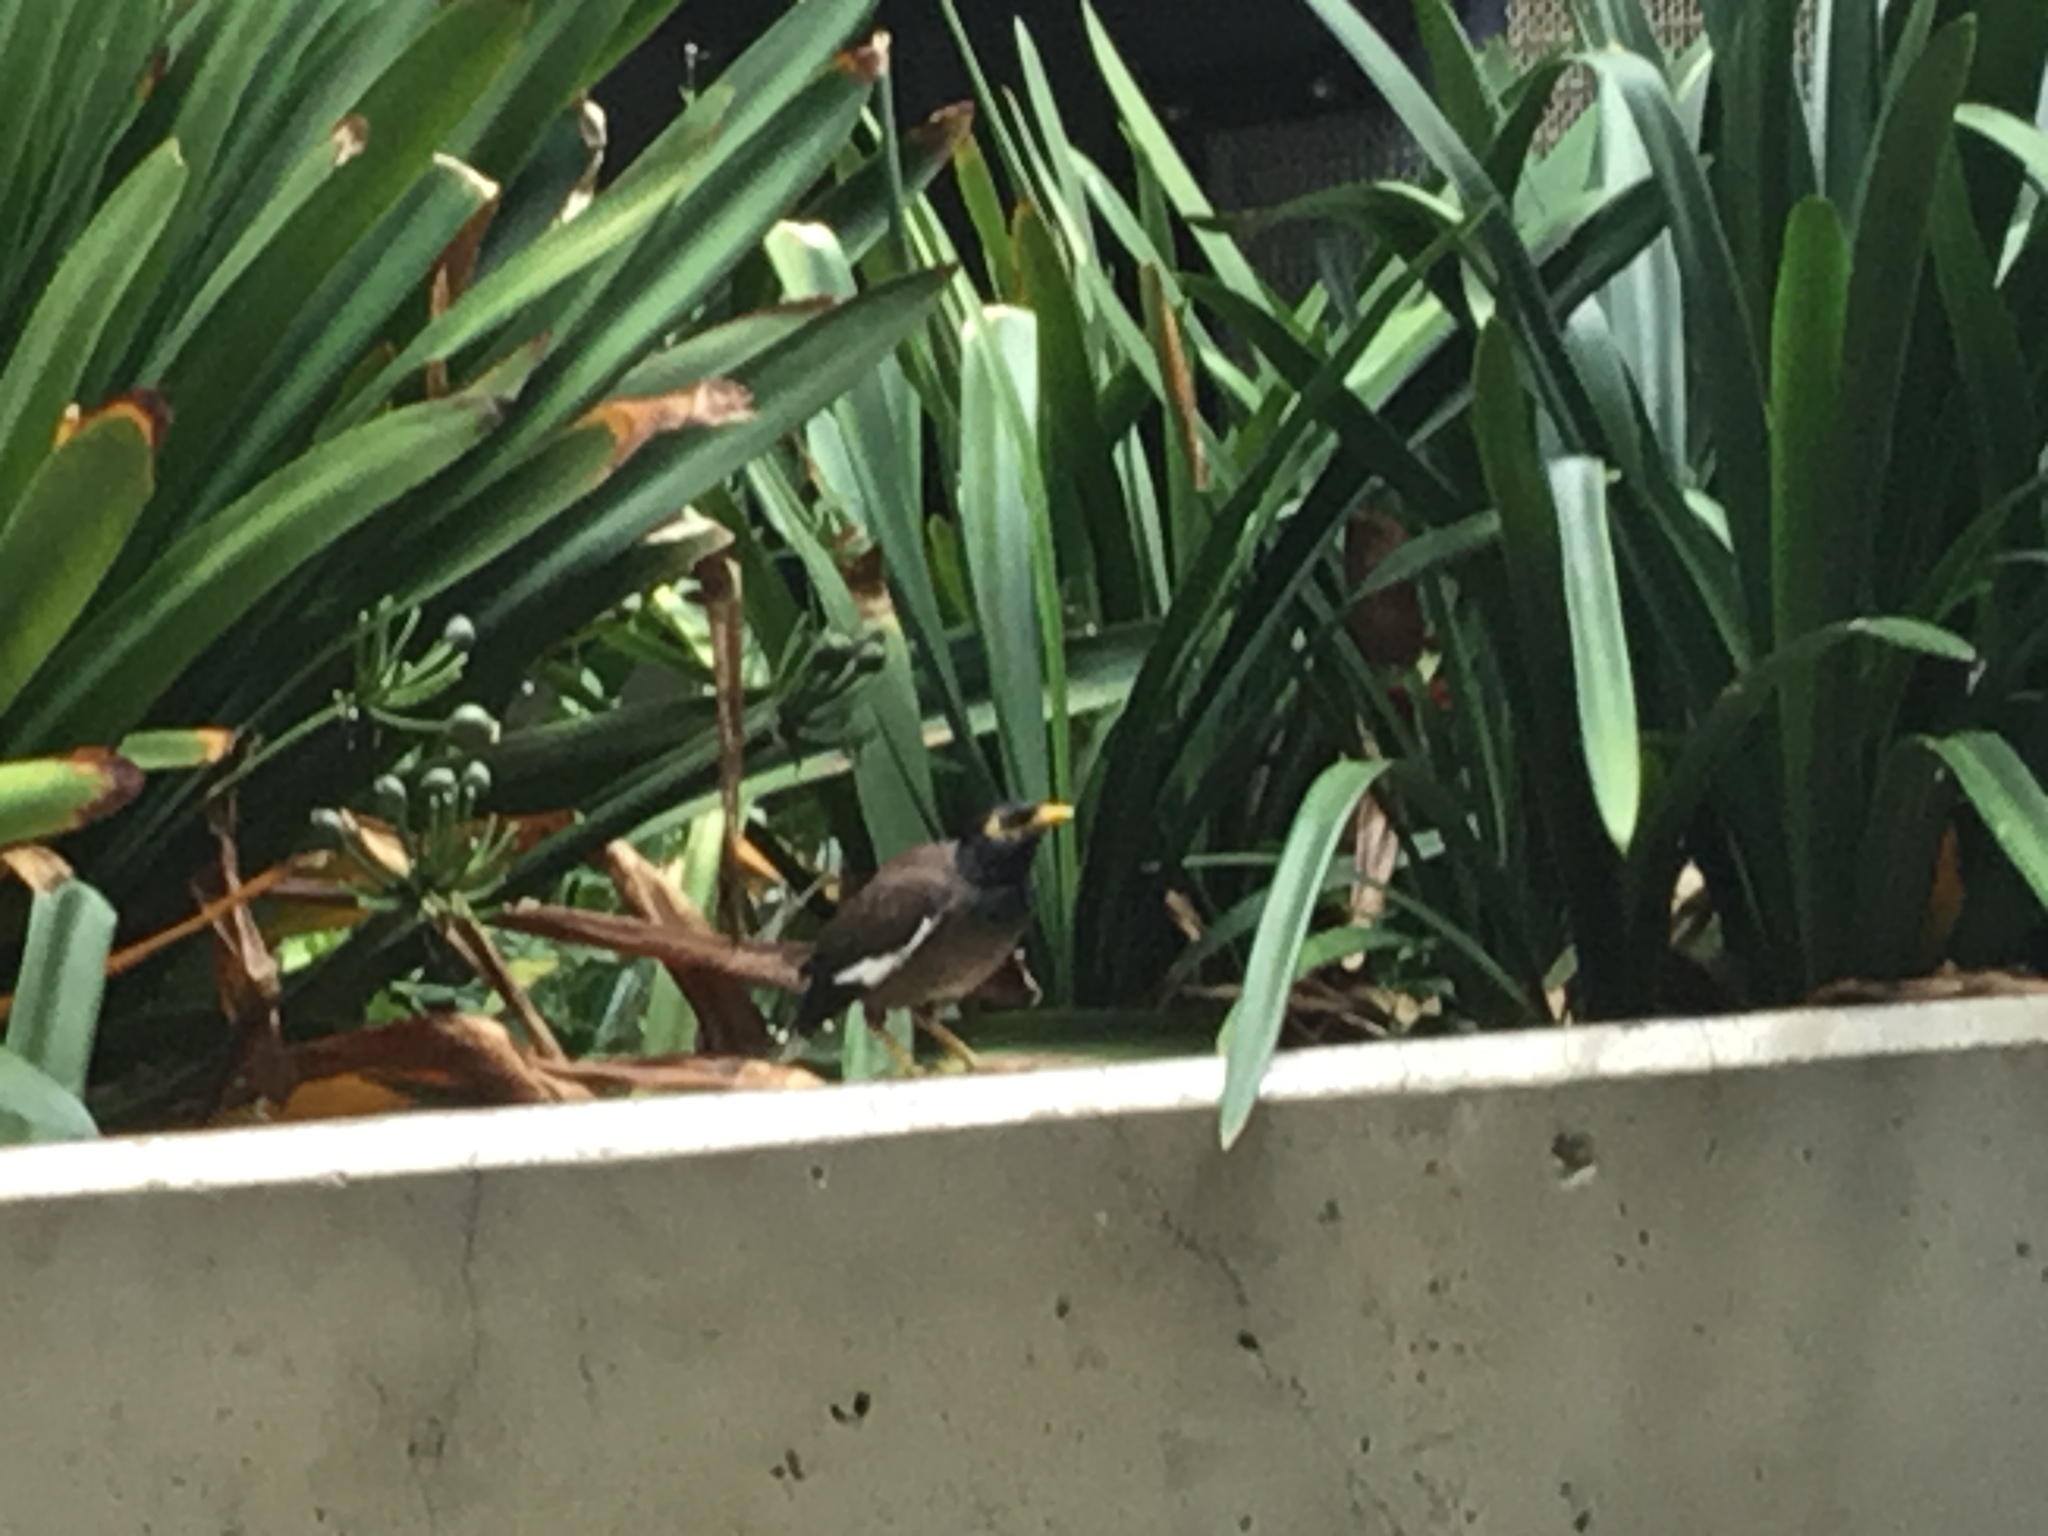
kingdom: Animalia
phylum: Chordata
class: Aves
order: Passeriformes
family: Sturnidae
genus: Acridotheres
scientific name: Acridotheres tristis
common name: Common myna
